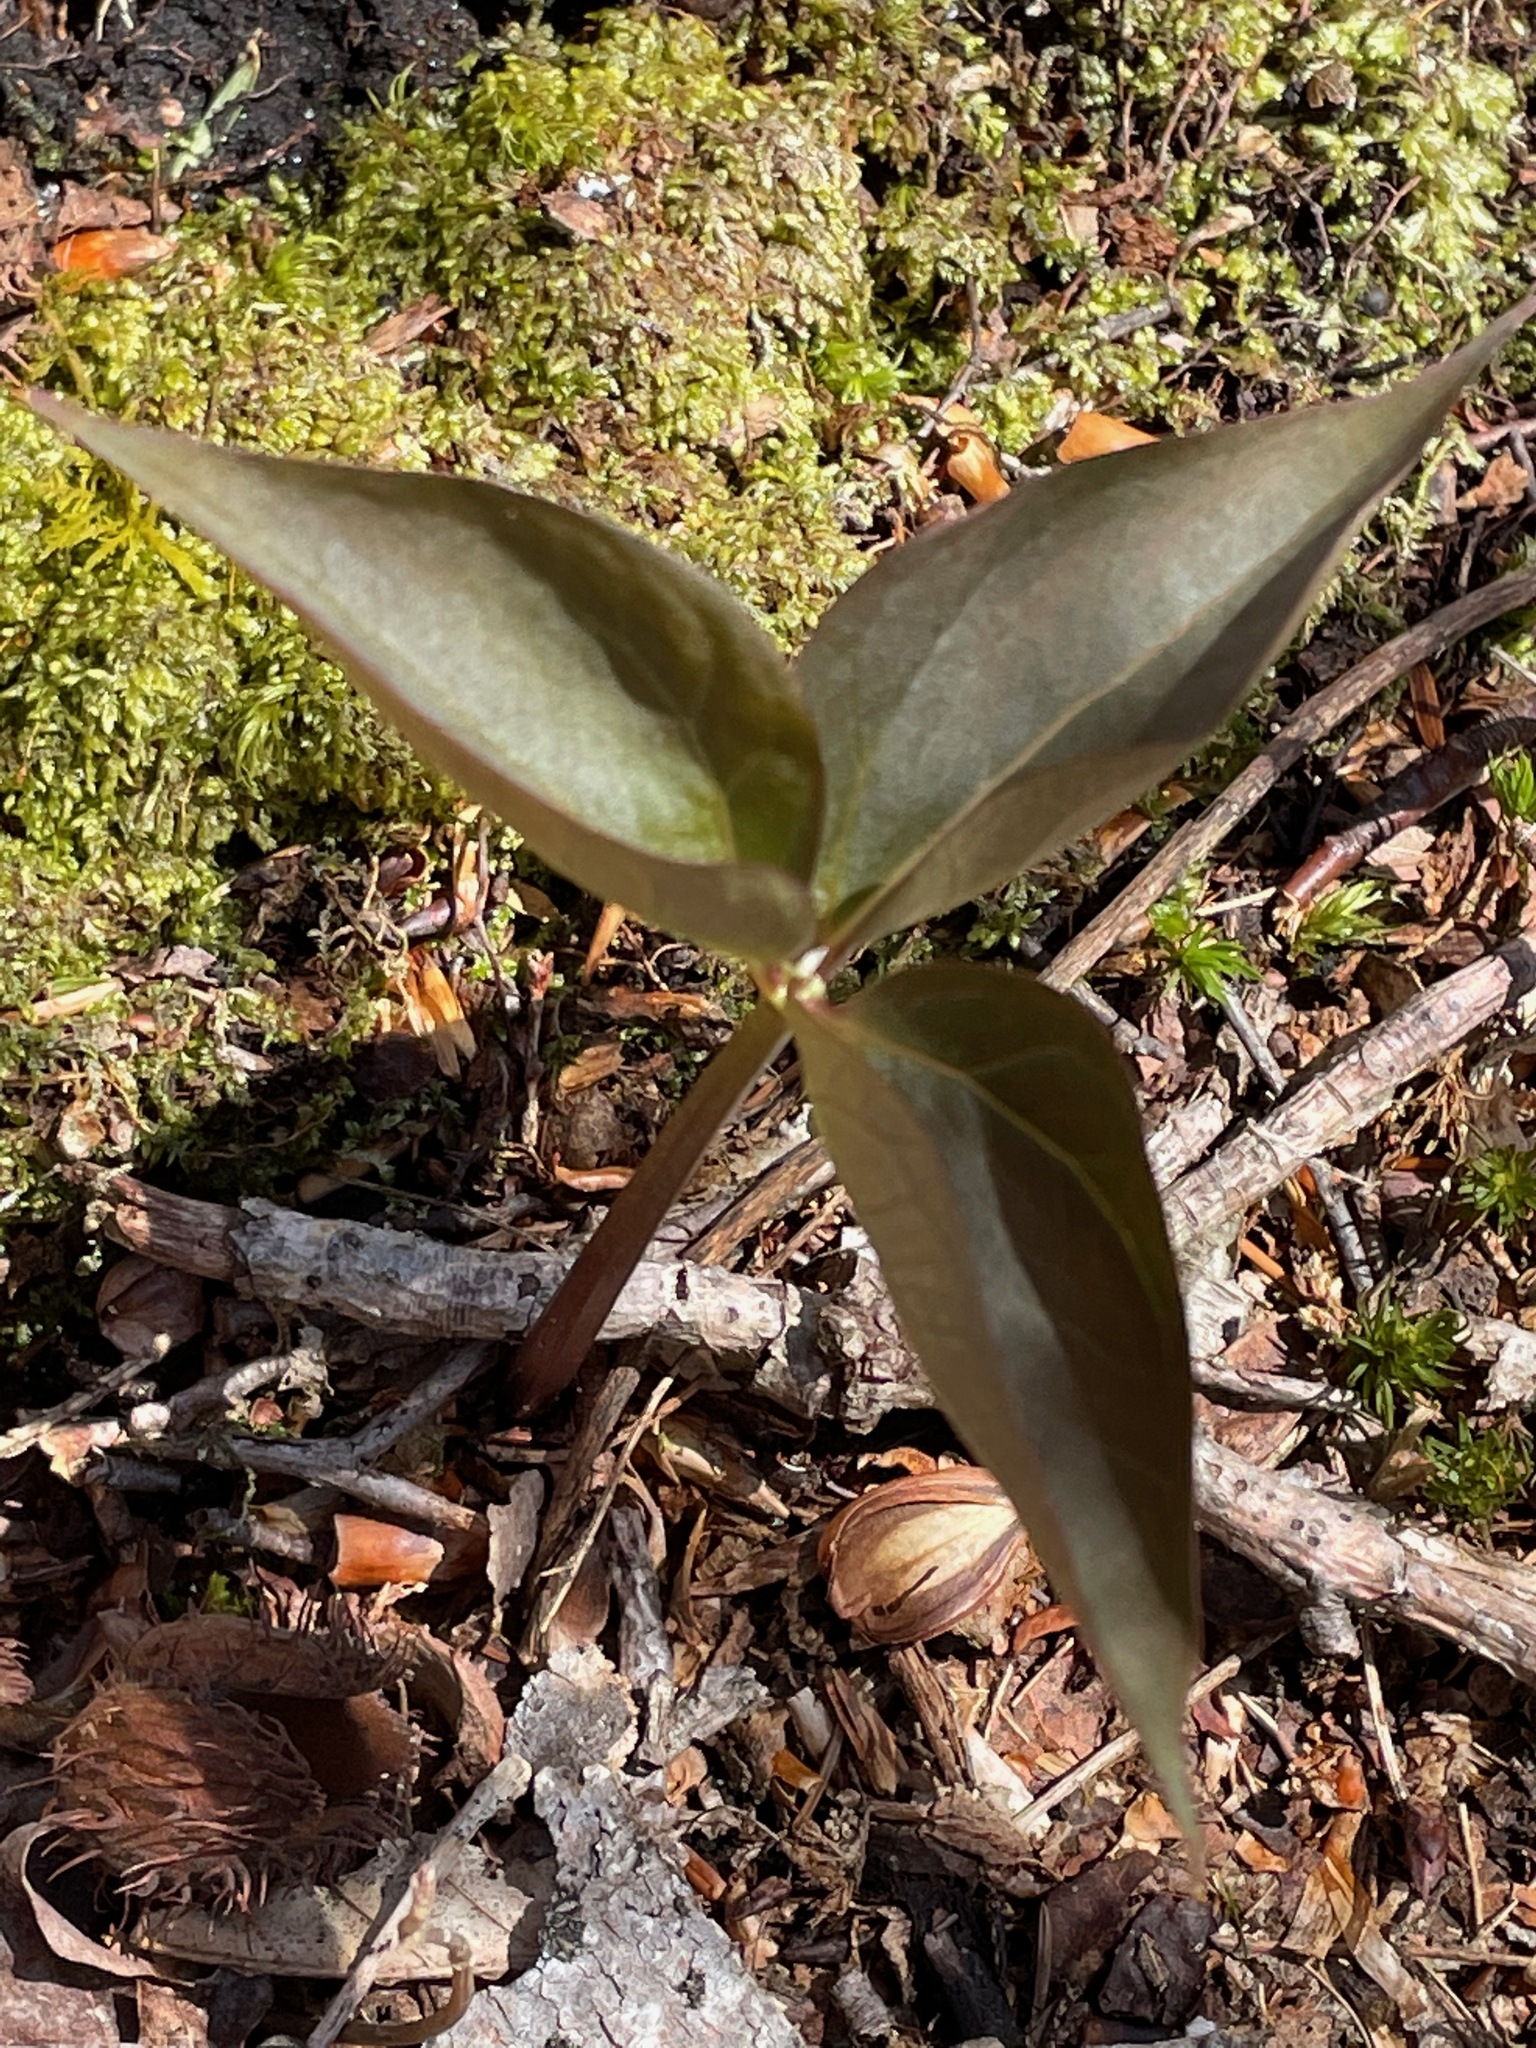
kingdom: Plantae
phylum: Tracheophyta
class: Liliopsida
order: Liliales
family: Melanthiaceae
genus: Trillium
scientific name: Trillium undulatum
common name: Paint trillium
